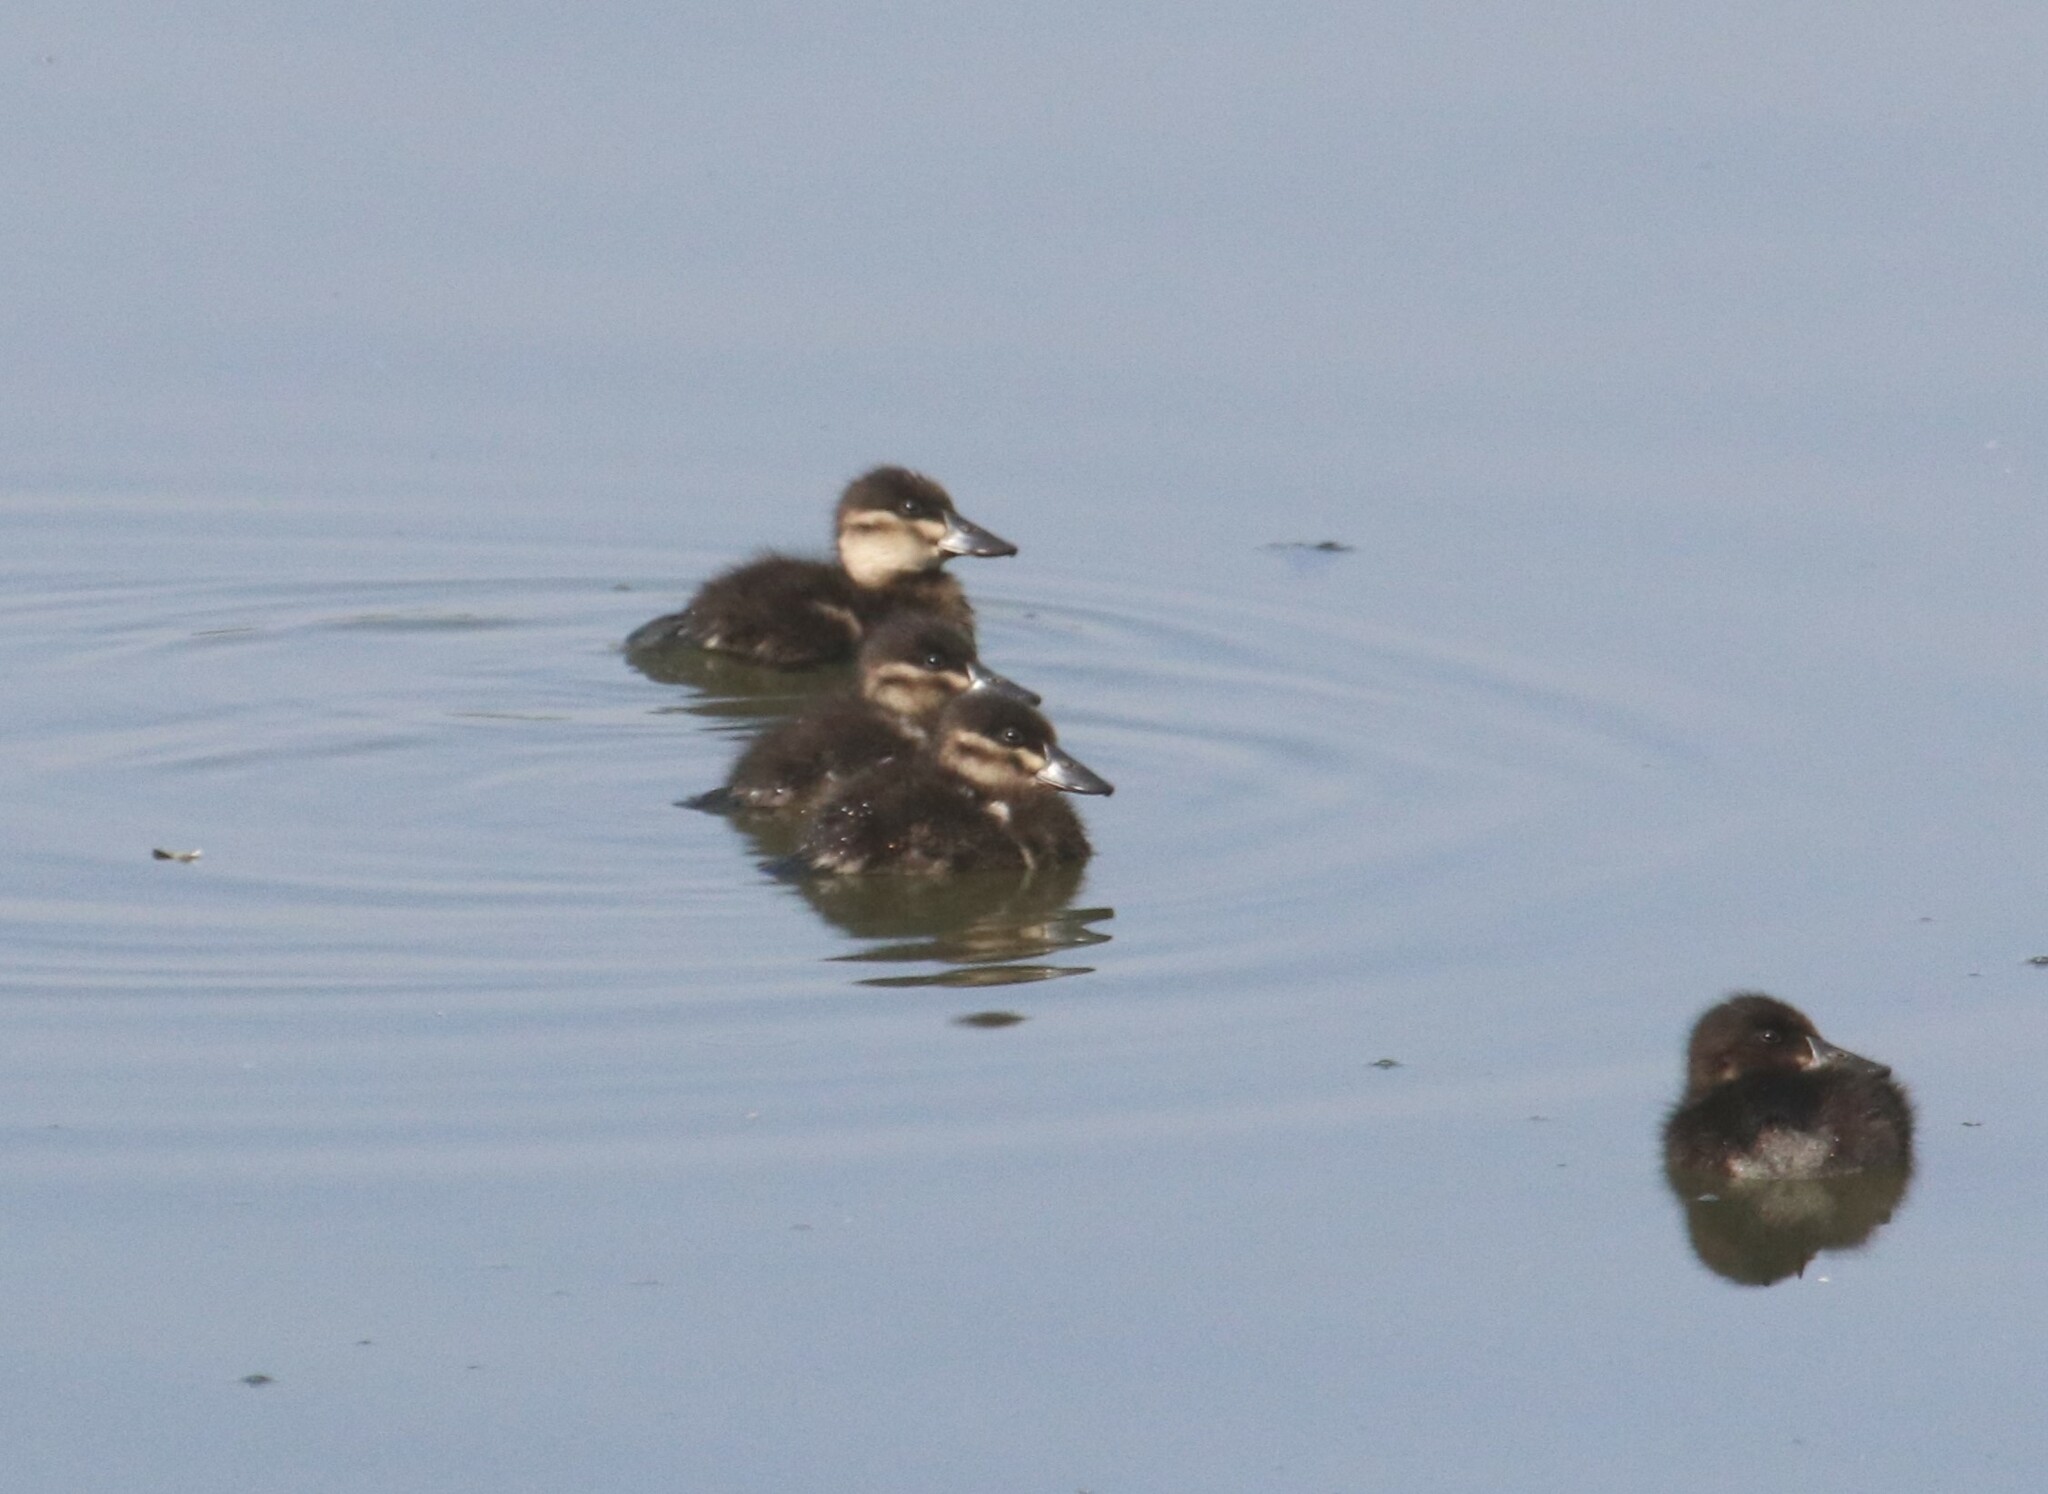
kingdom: Animalia
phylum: Chordata
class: Aves
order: Anseriformes
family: Anatidae
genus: Oxyura
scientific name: Oxyura ferruginea
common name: Andean duck
